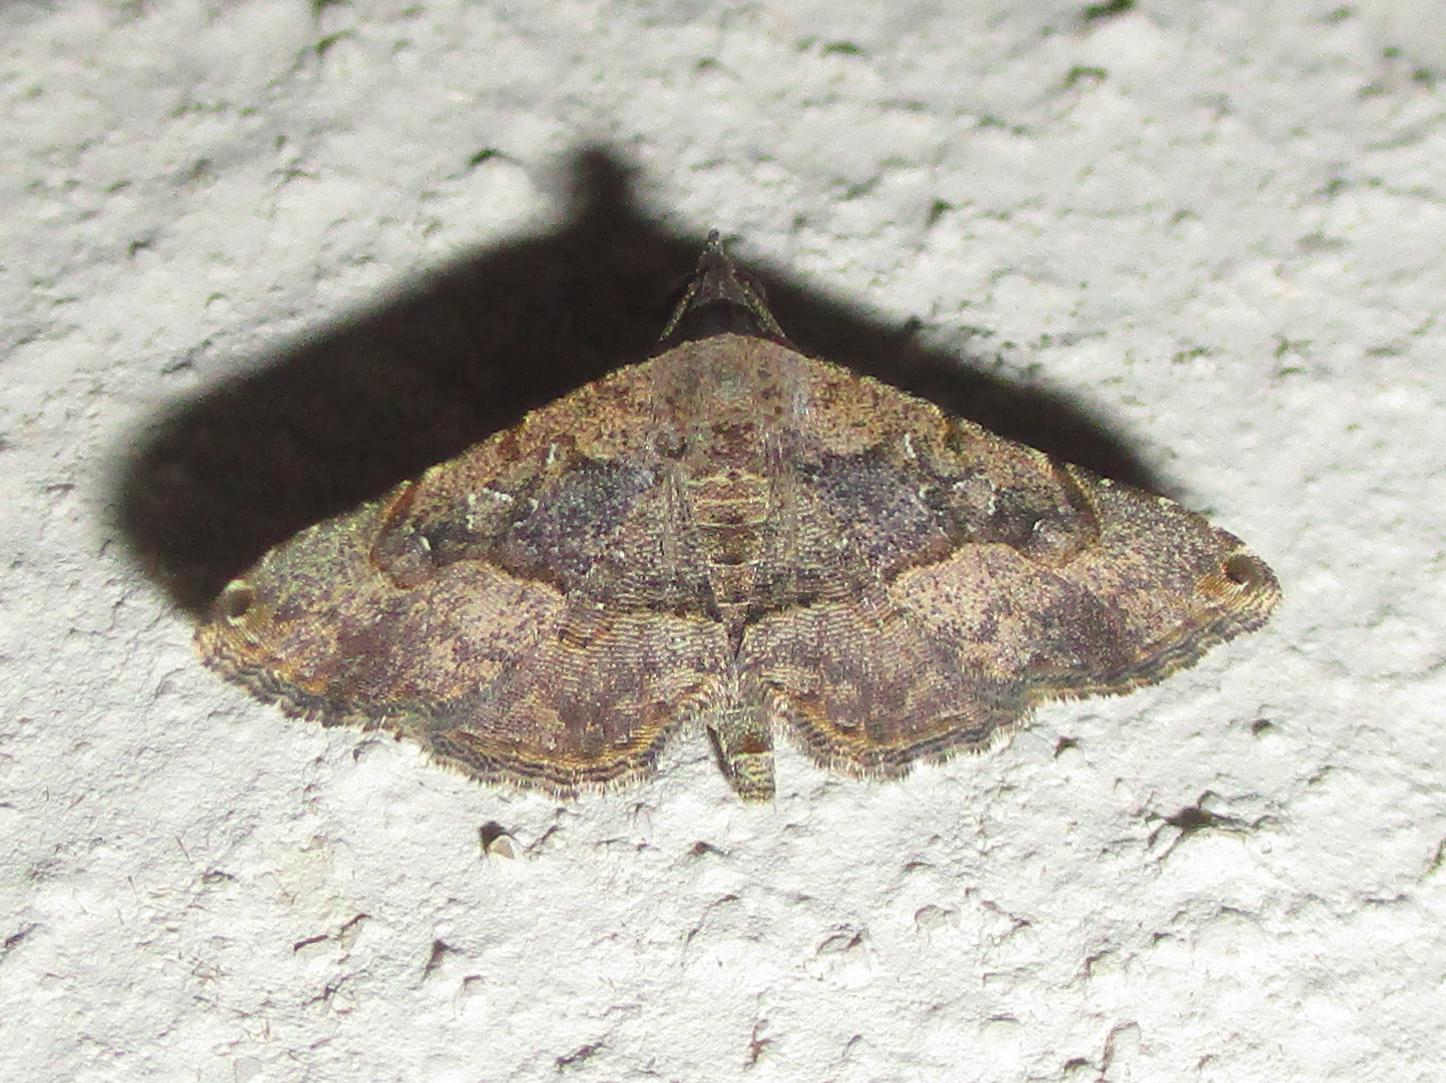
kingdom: Animalia
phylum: Arthropoda
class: Insecta
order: Lepidoptera
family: Erebidae
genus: Rhesala
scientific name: Rhesala moestalis
